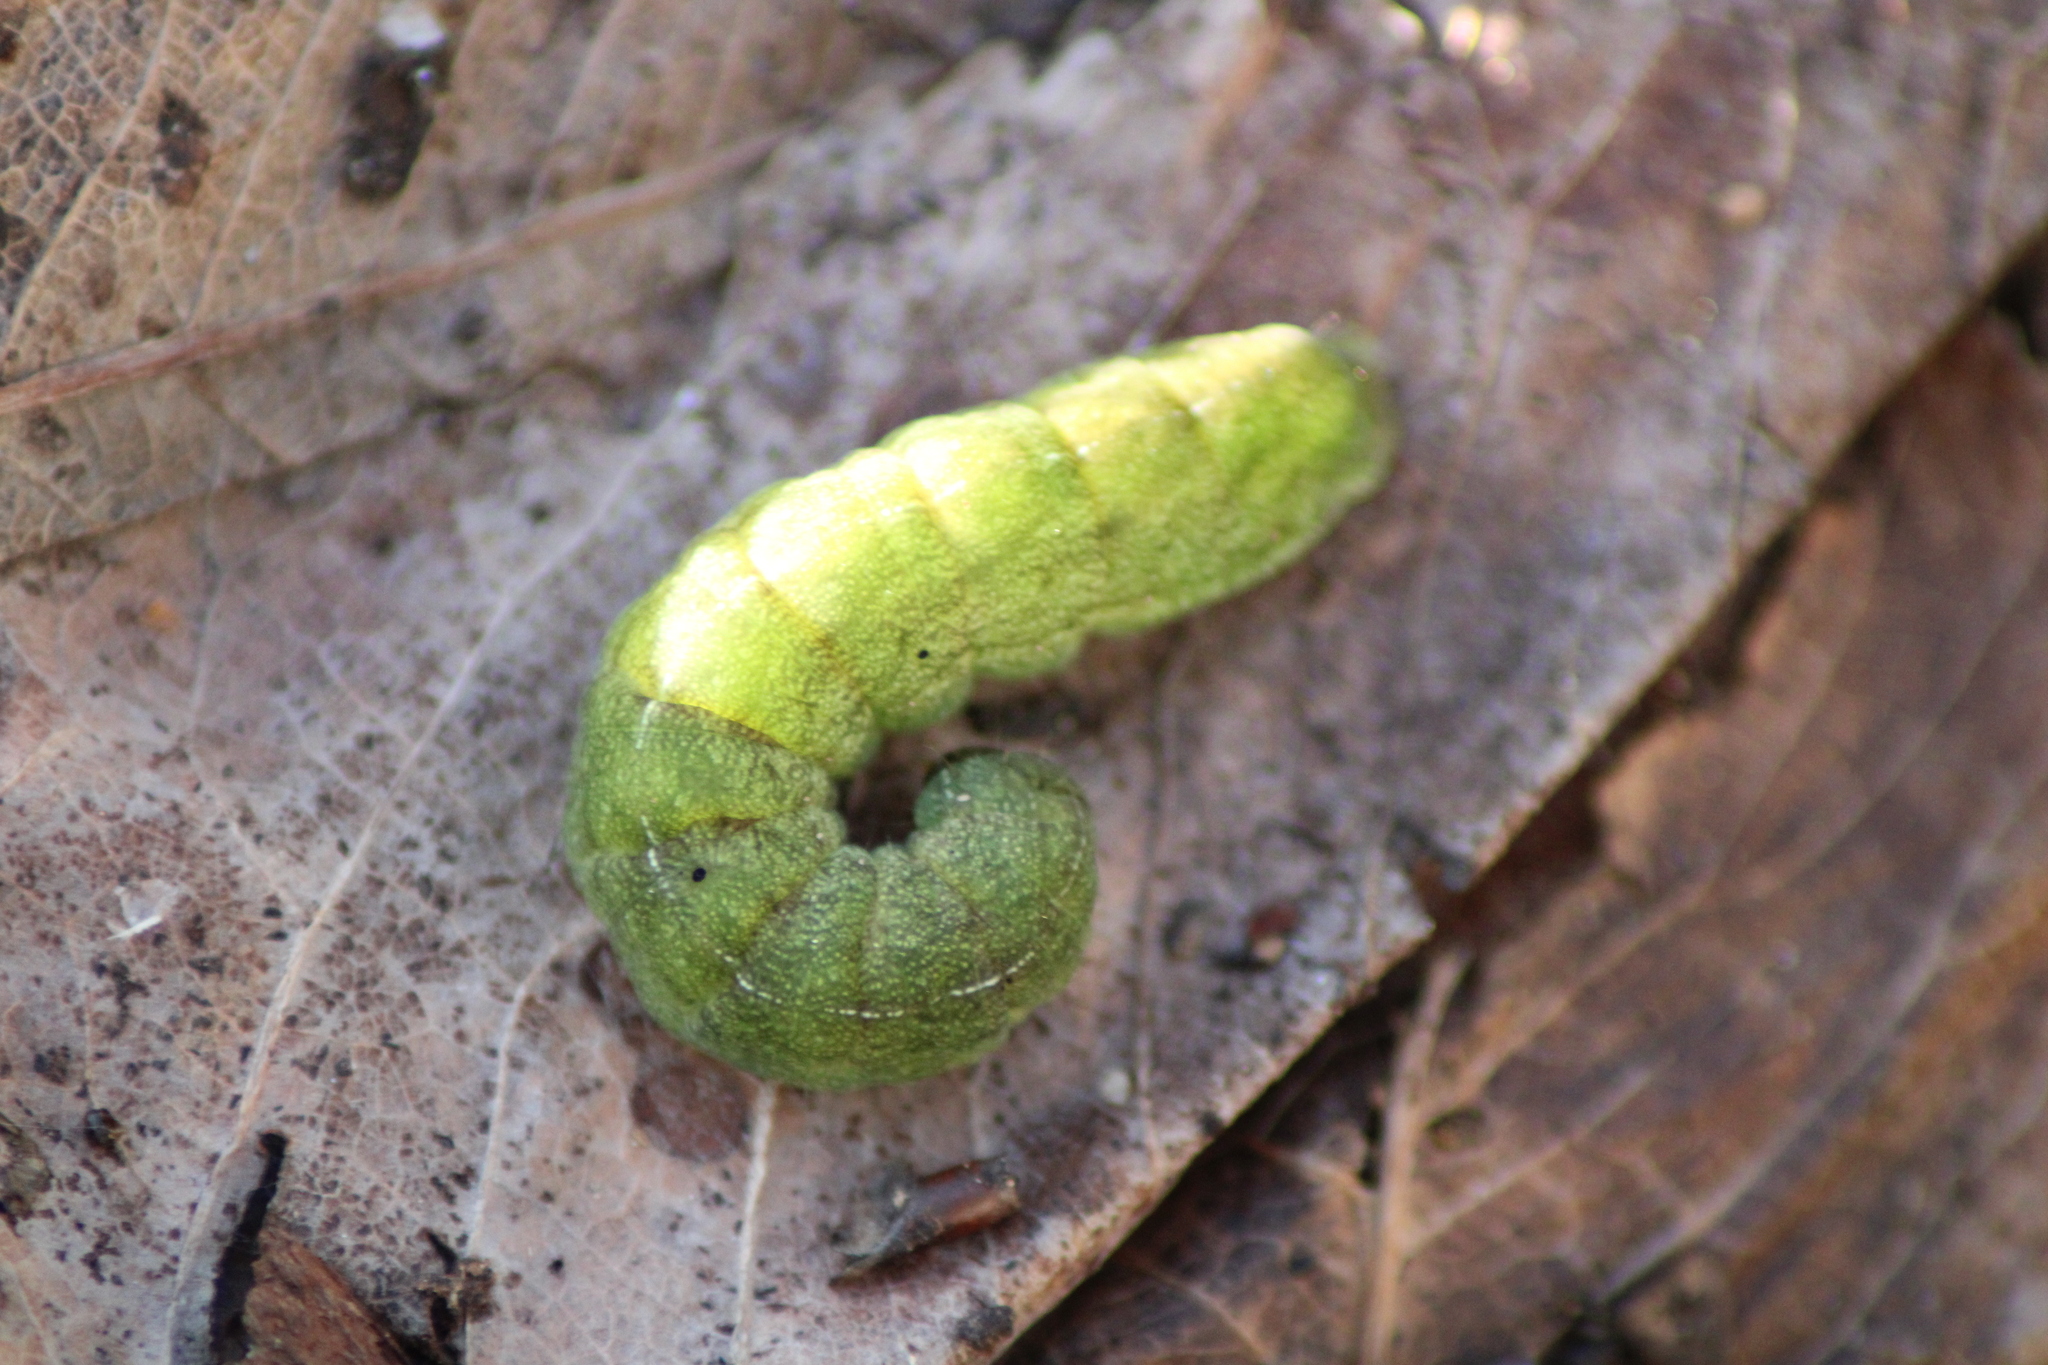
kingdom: Animalia
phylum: Arthropoda
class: Insecta
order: Lepidoptera
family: Noctuidae
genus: Phlogophora
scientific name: Phlogophora meticulosa
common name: Angle shades
